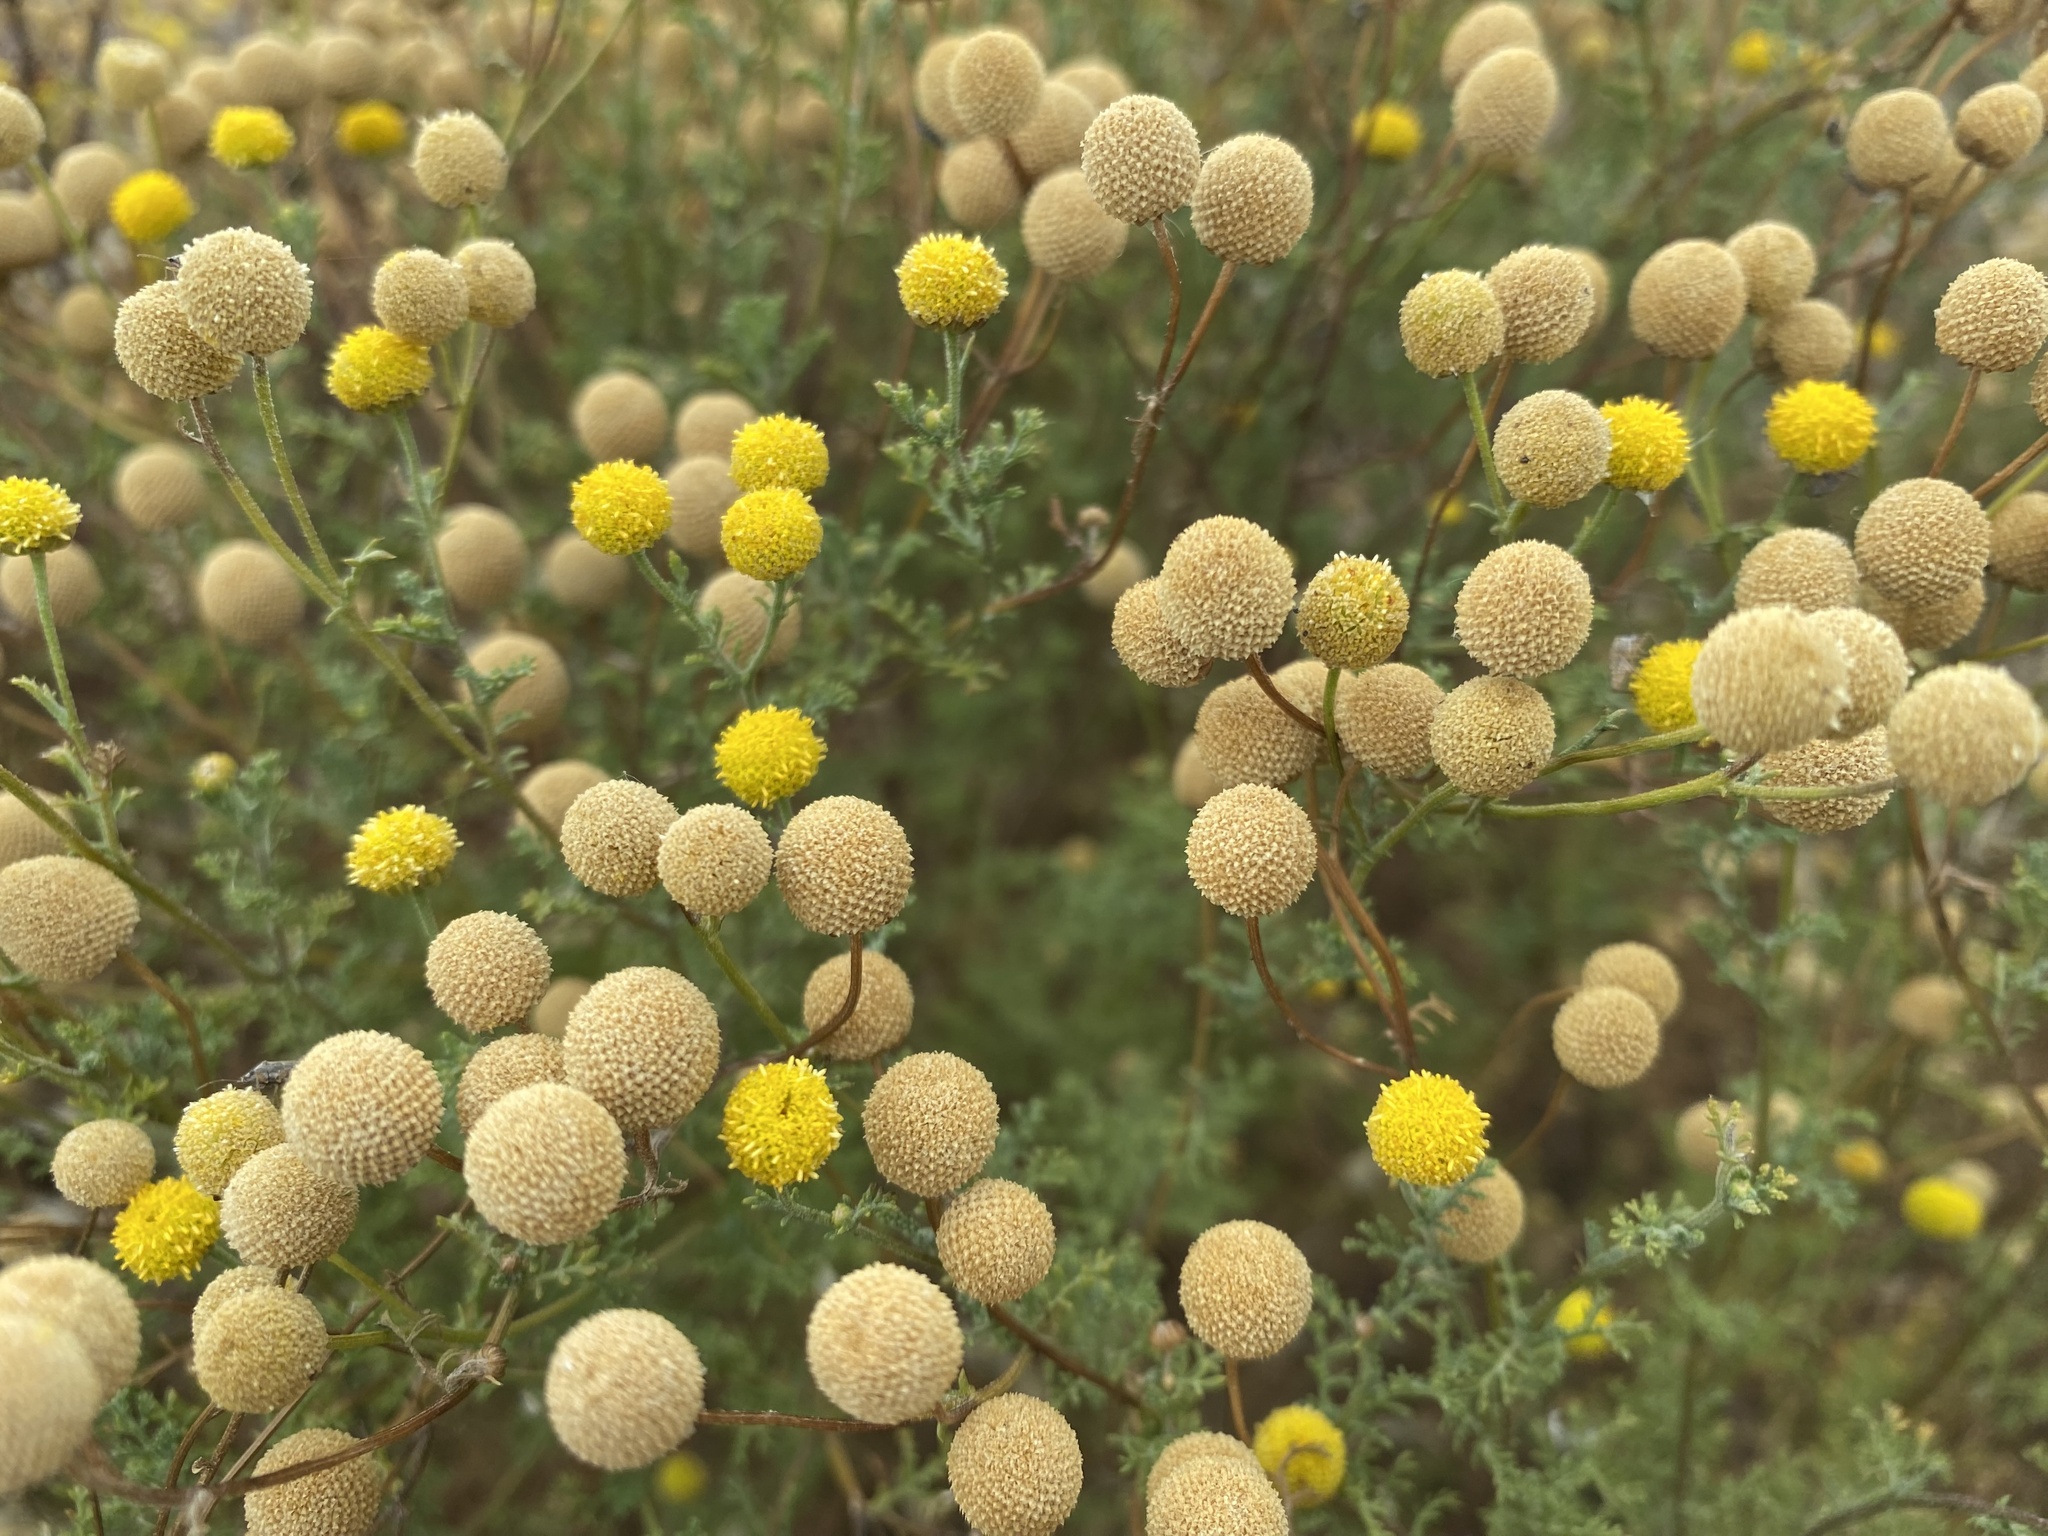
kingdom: Plantae
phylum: Tracheophyta
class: Magnoliopsida
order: Asterales
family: Asteraceae
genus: Oncosiphon
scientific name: Oncosiphon pilulifer
